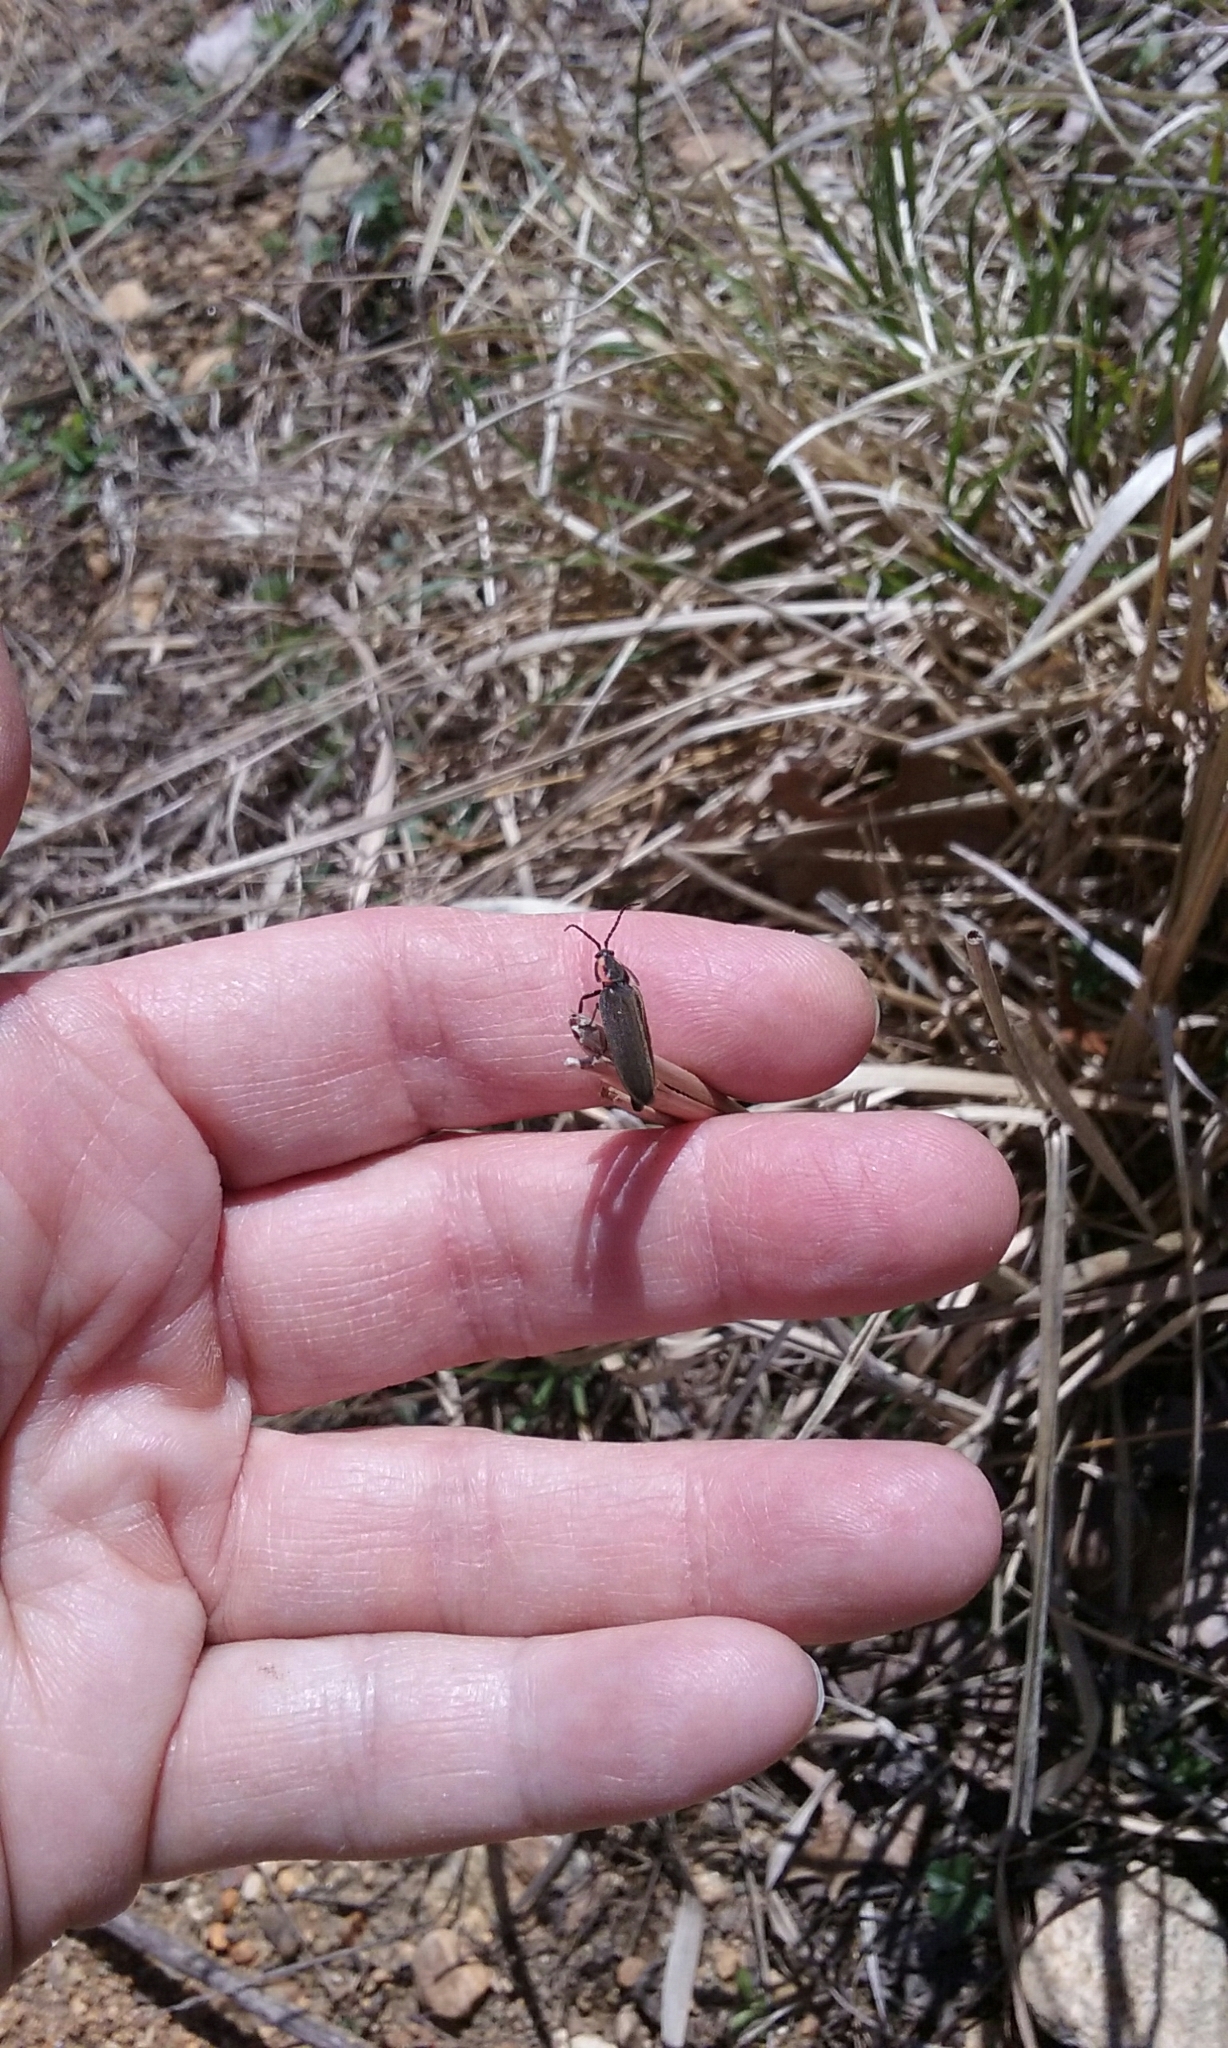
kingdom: Animalia
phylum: Arthropoda
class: Insecta
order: Coleoptera
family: Lampyridae
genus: Photinus
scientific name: Photinus corrusca
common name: Winter firefly
